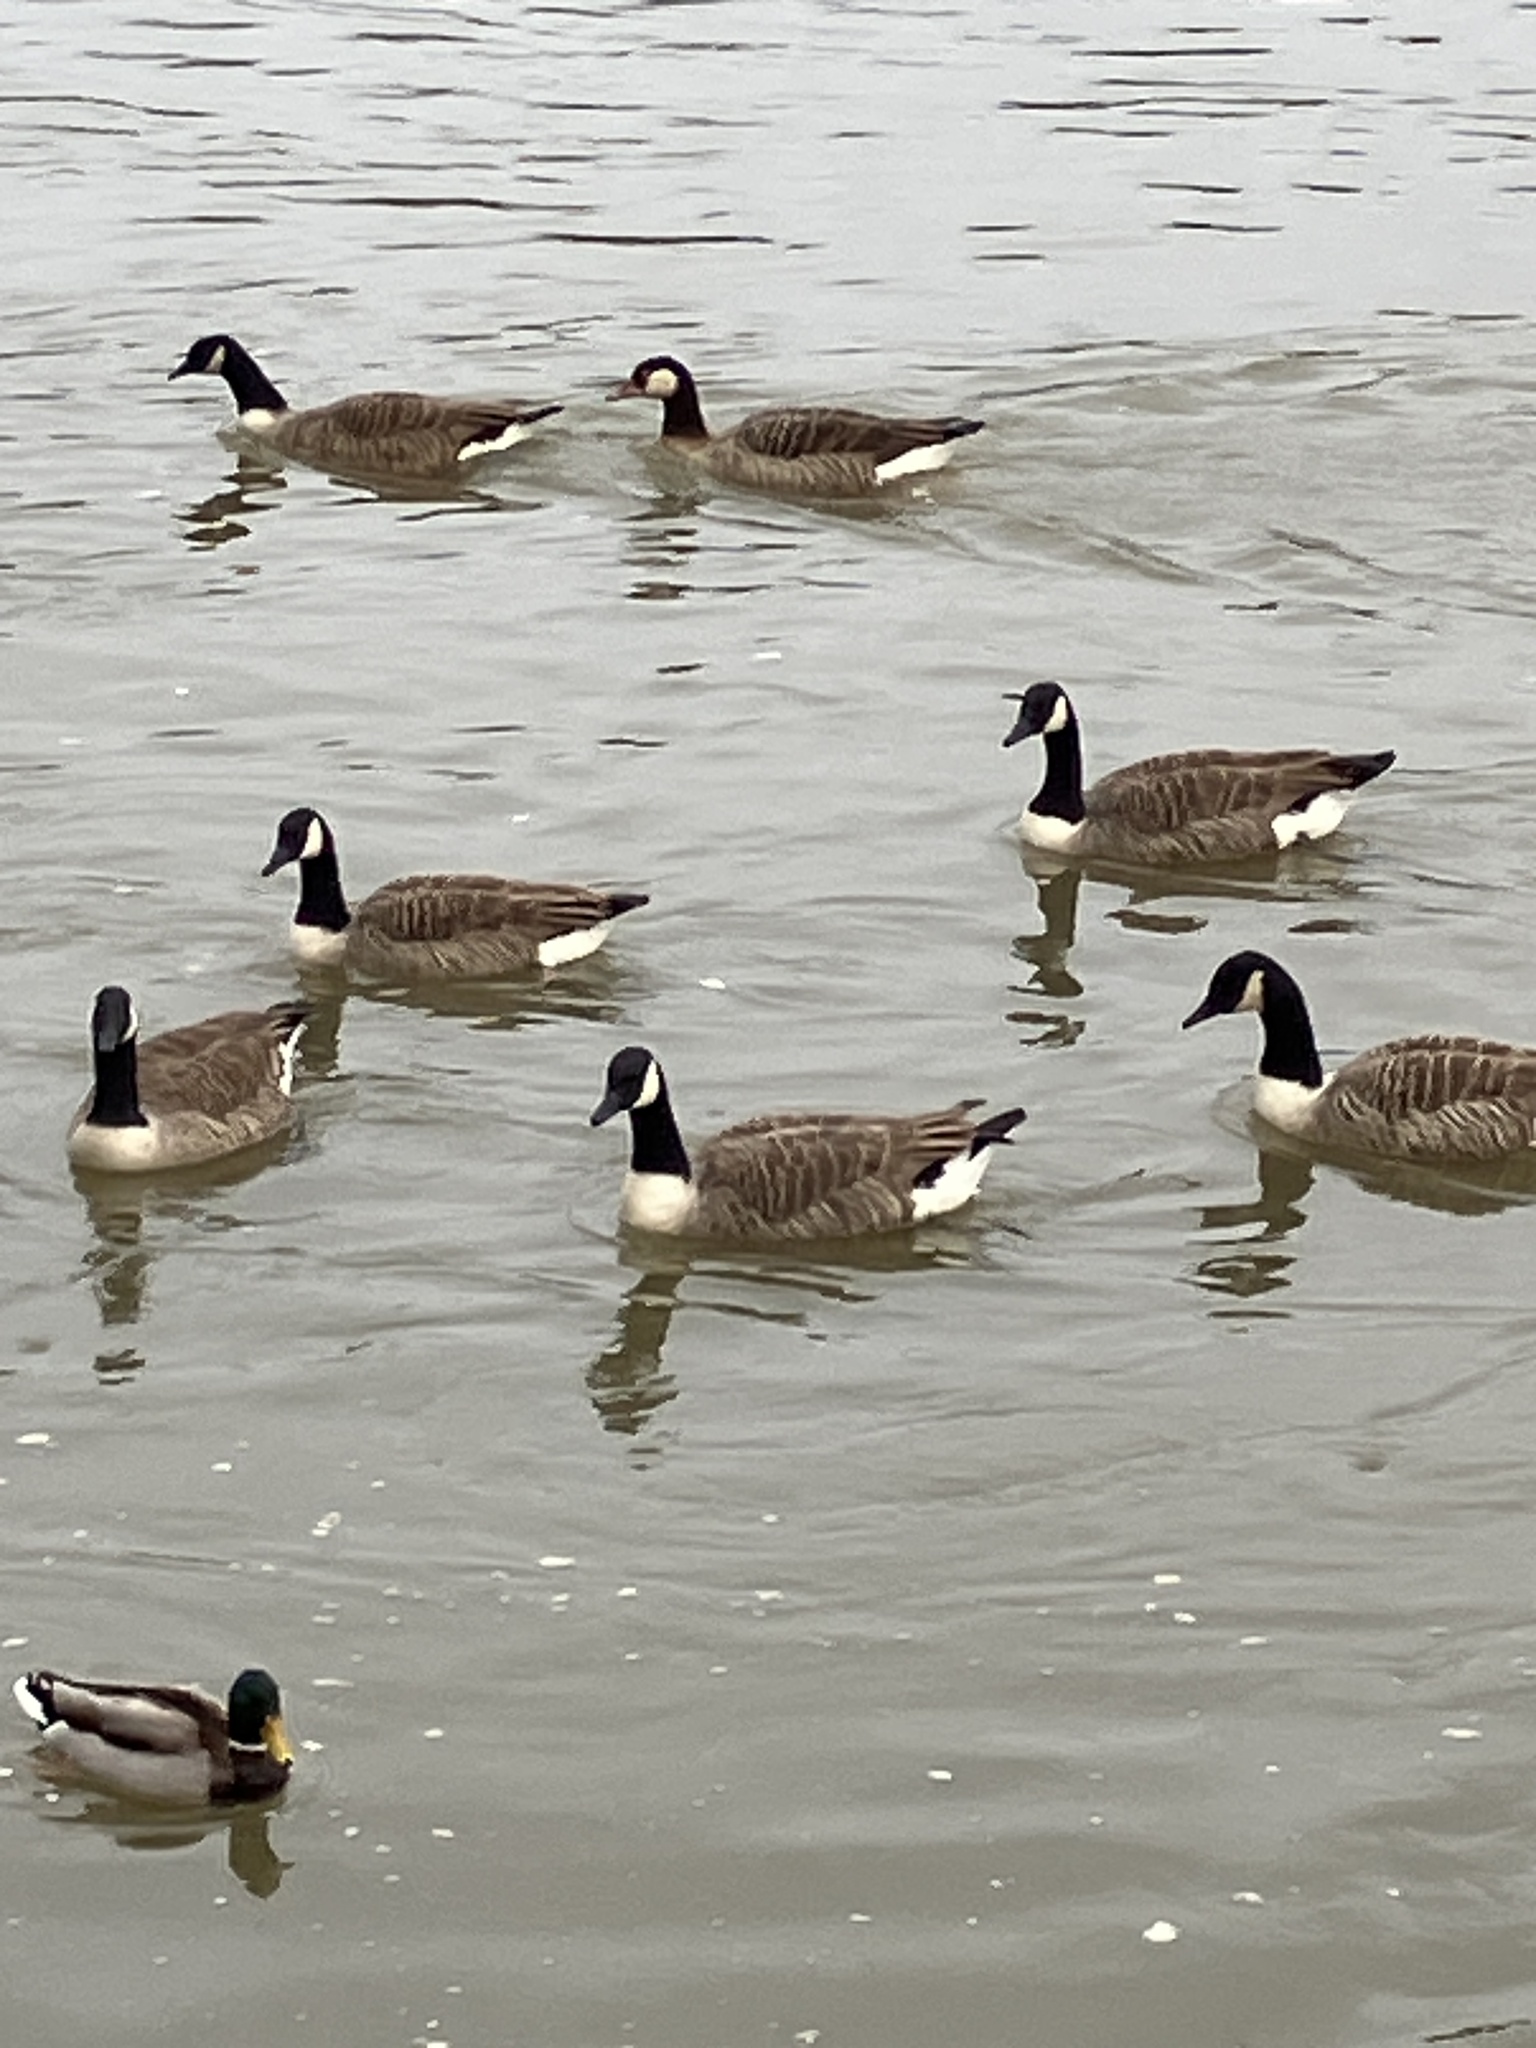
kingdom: Animalia
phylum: Chordata
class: Aves
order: Anseriformes
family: Anatidae
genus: Branta
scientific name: Branta canadensis
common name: Canada goose
